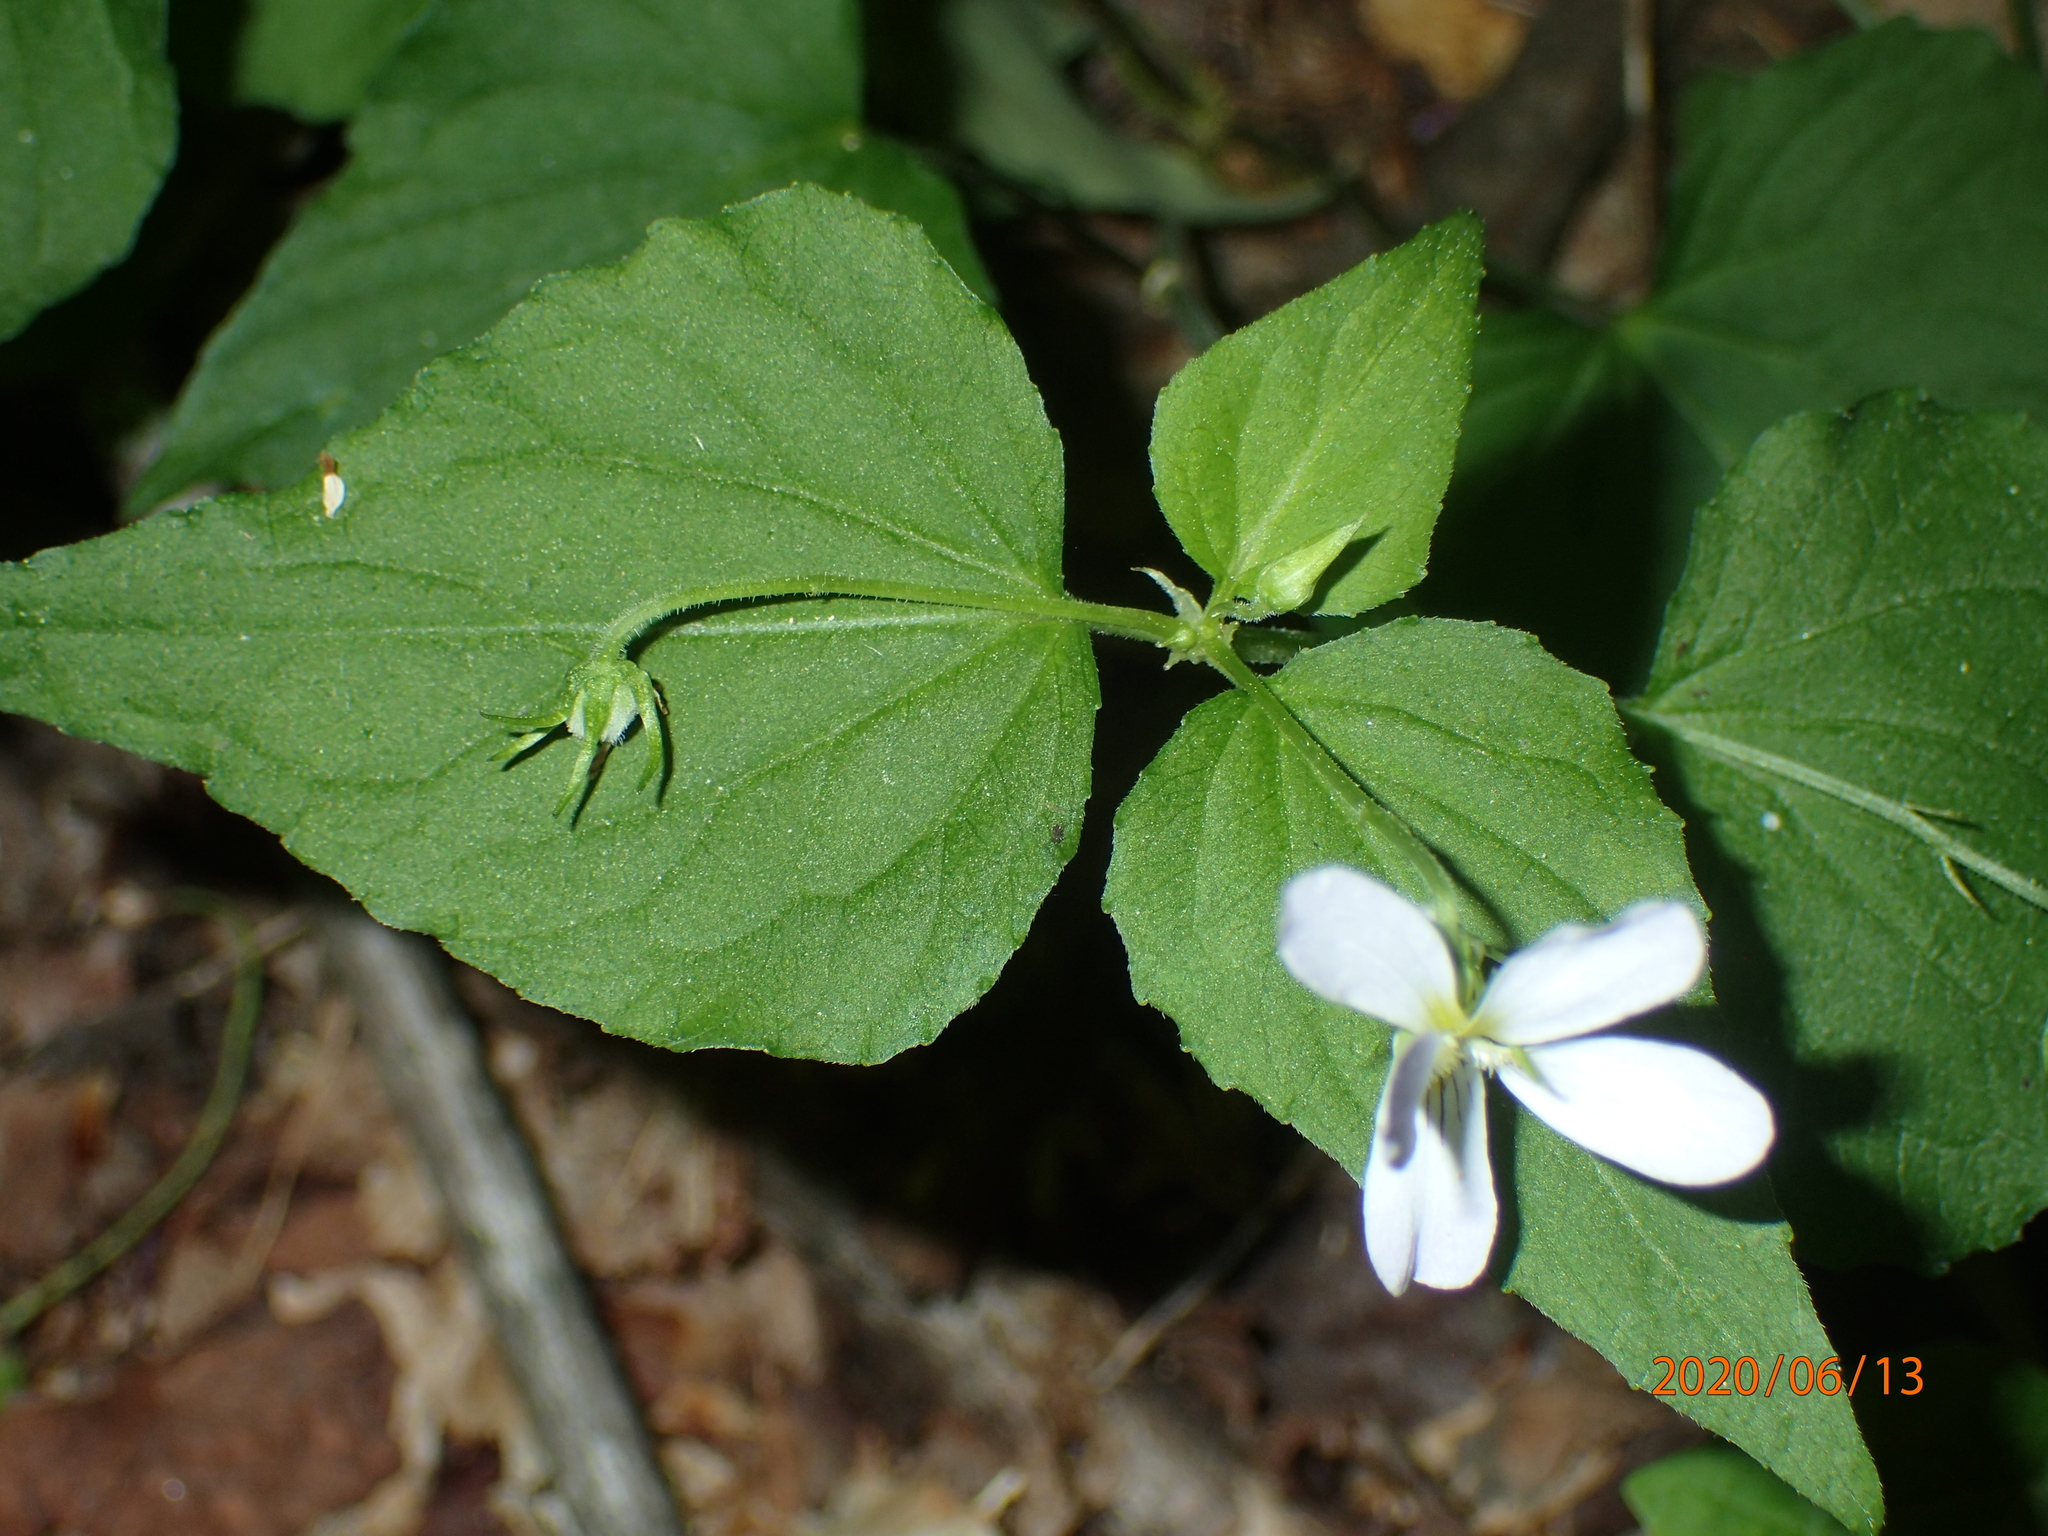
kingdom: Plantae
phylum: Tracheophyta
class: Magnoliopsida
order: Malpighiales
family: Violaceae
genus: Viola
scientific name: Viola canadensis
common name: Canada violet
